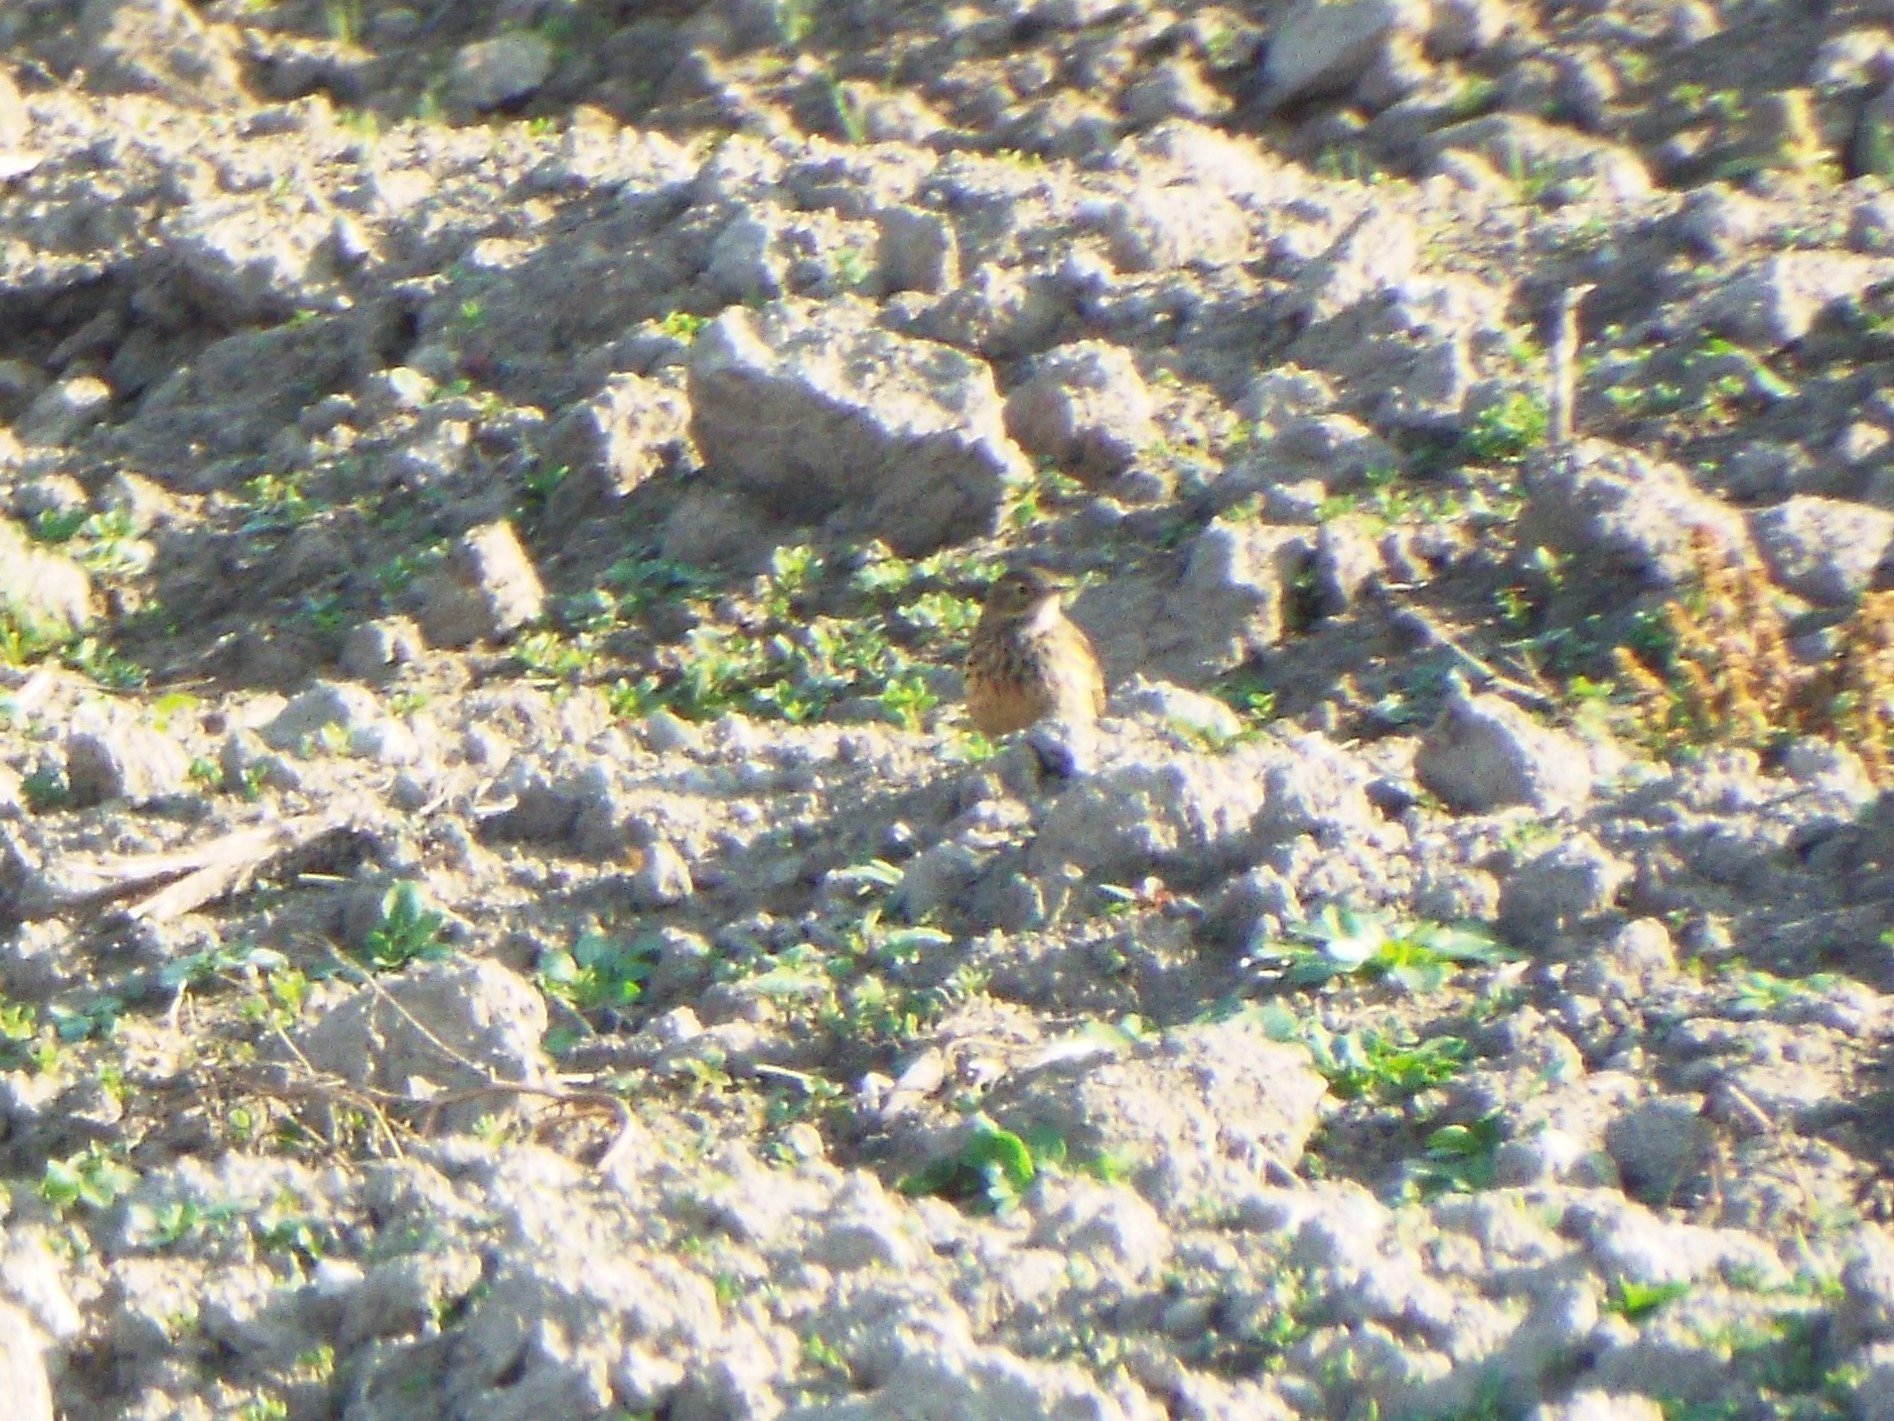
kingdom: Animalia
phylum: Chordata
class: Aves
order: Passeriformes
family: Motacillidae
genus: Anthus
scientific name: Anthus rubescens
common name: Buff-bellied pipit
